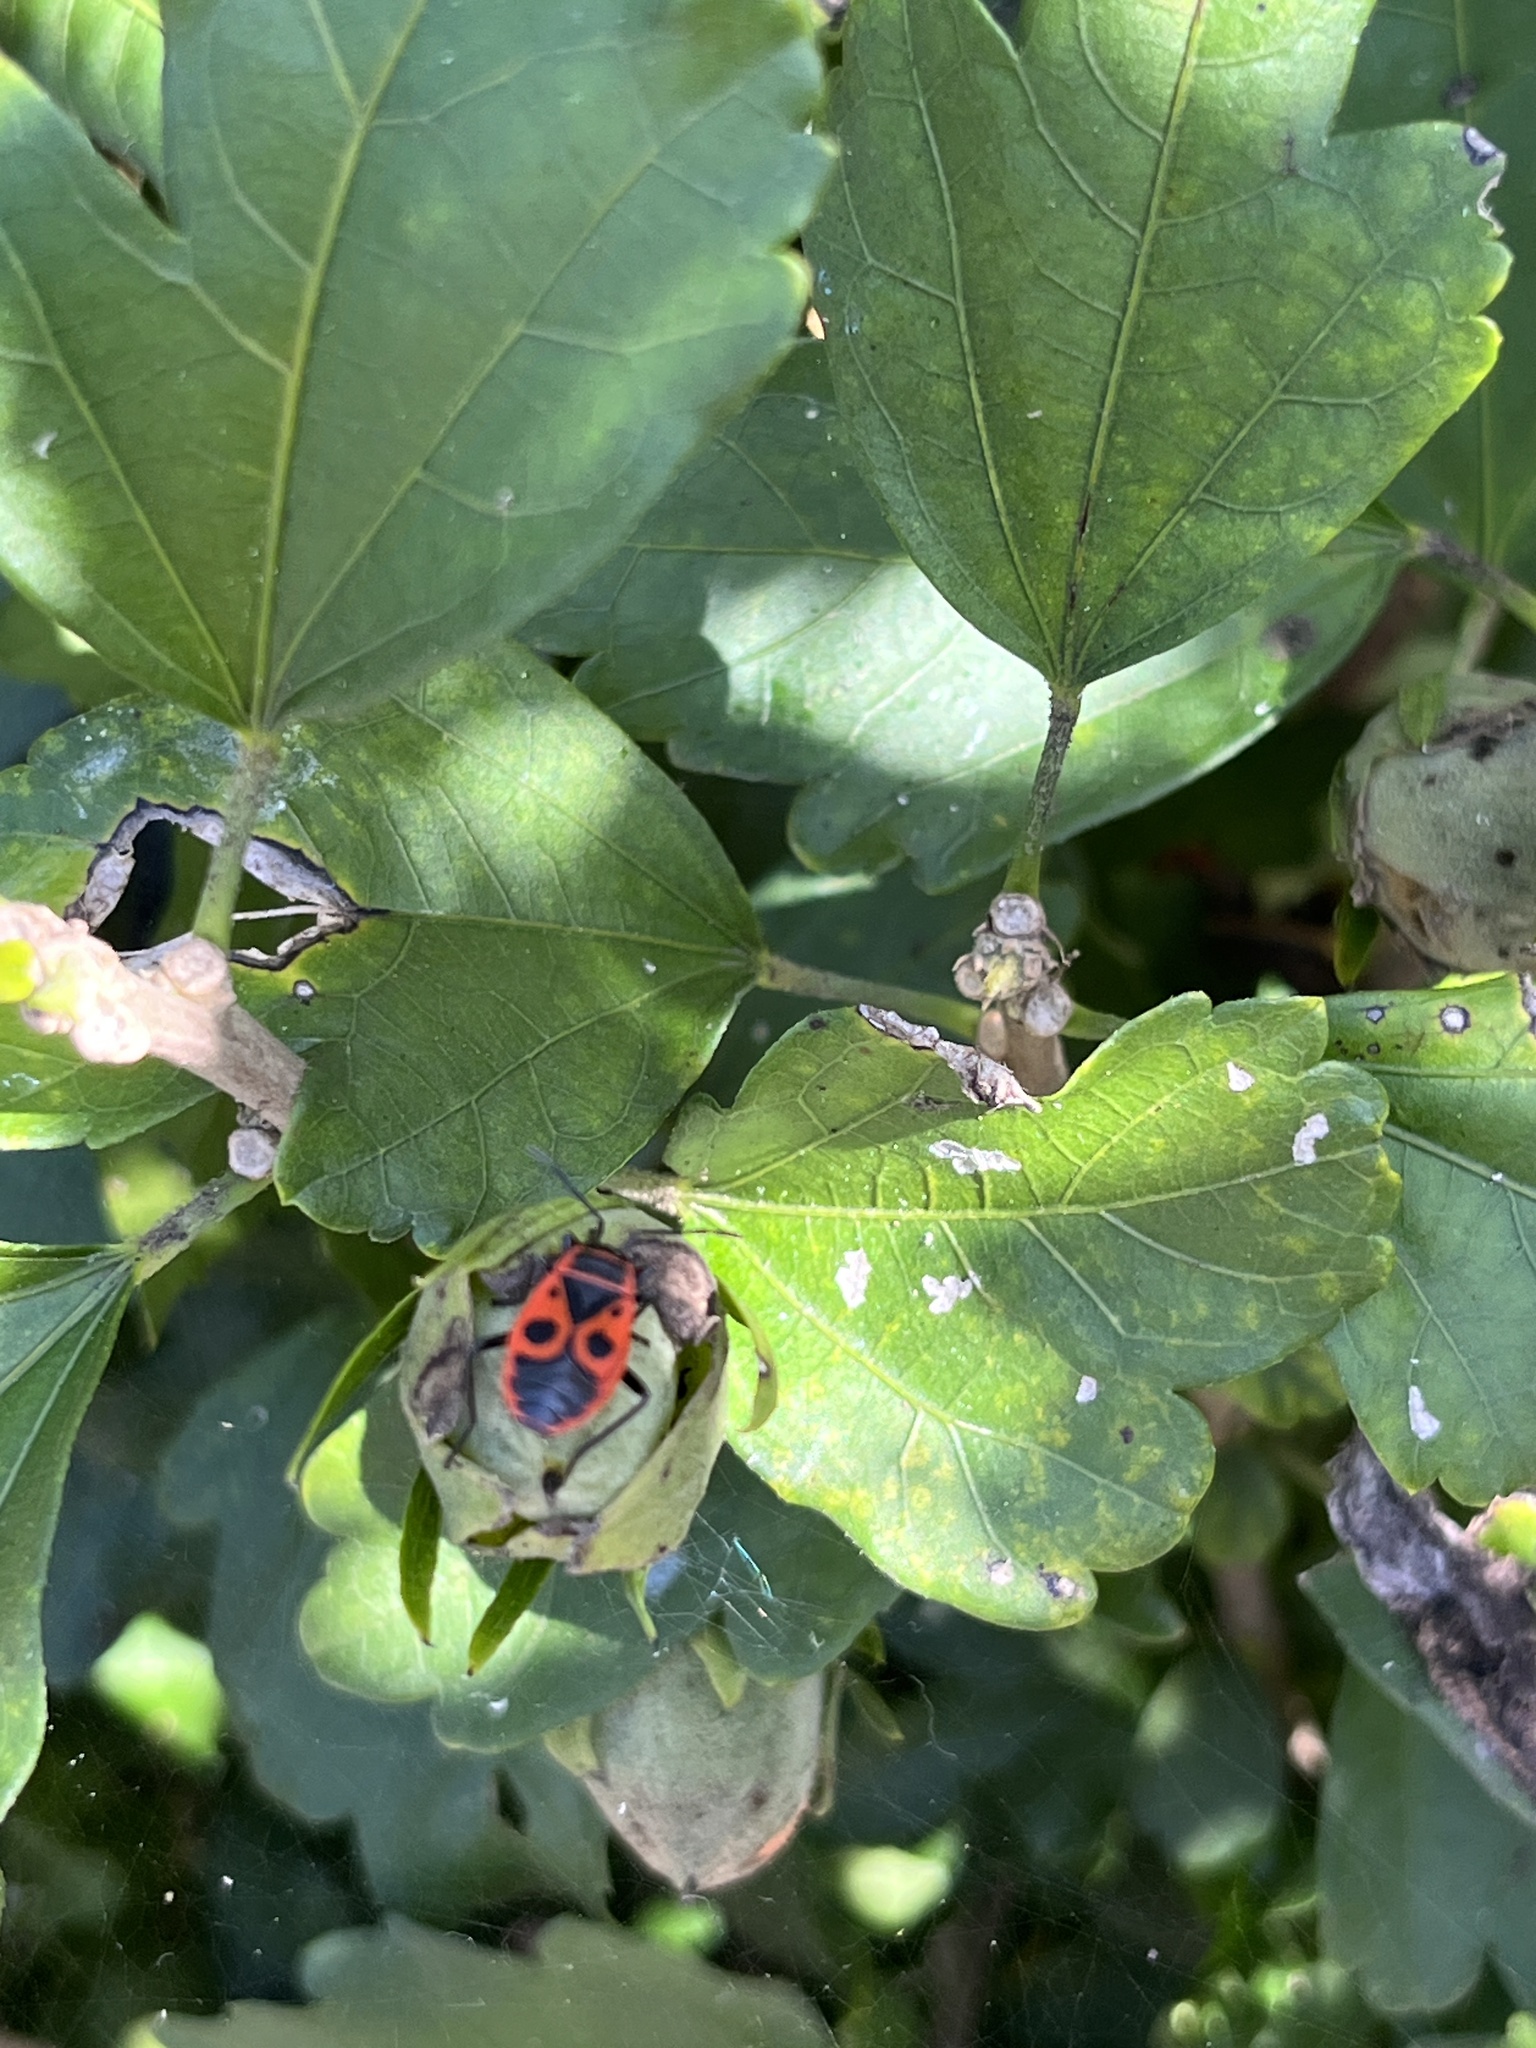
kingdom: Animalia
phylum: Arthropoda
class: Insecta
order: Hemiptera
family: Pyrrhocoridae
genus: Pyrrhocoris
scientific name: Pyrrhocoris apterus
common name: Firebug
